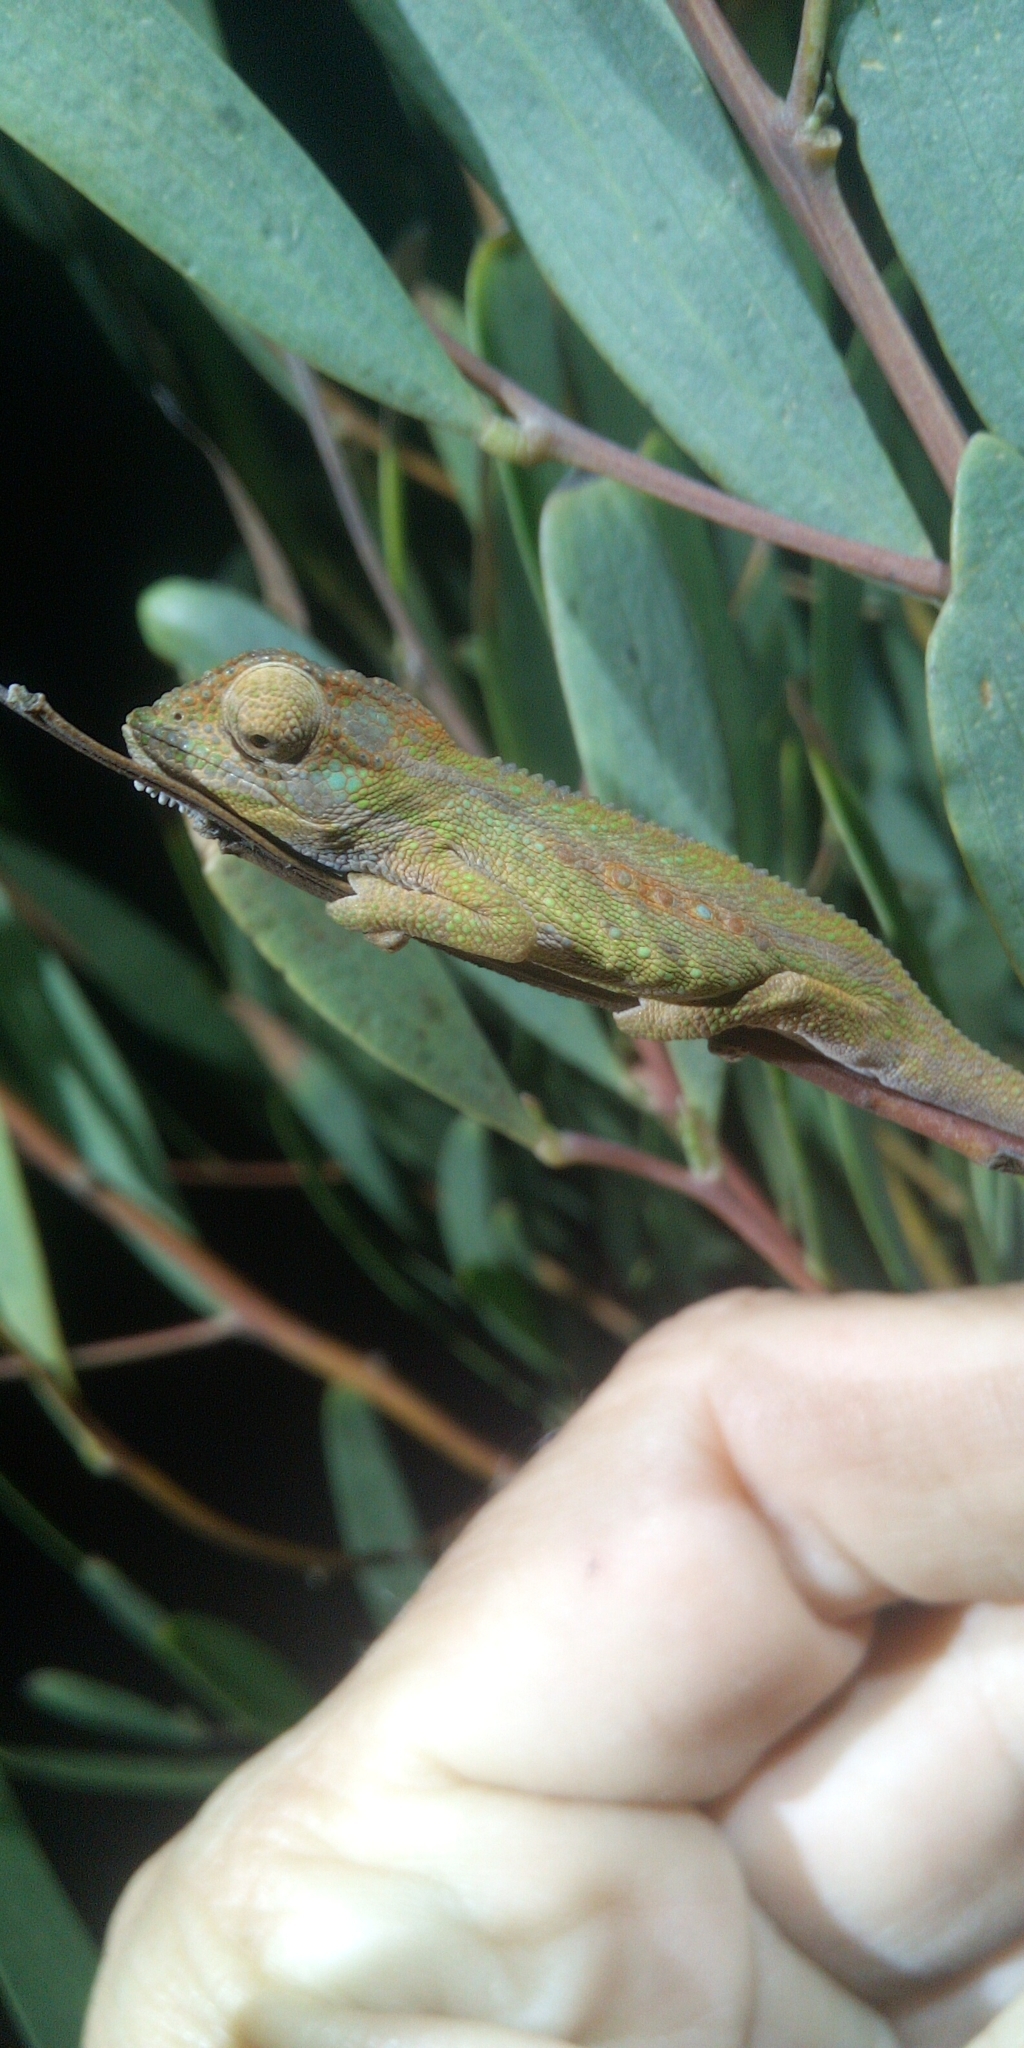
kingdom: Animalia
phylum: Chordata
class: Squamata
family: Chamaeleonidae
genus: Bradypodion
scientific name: Bradypodion pumilum
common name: Cape dwarf chameleon
